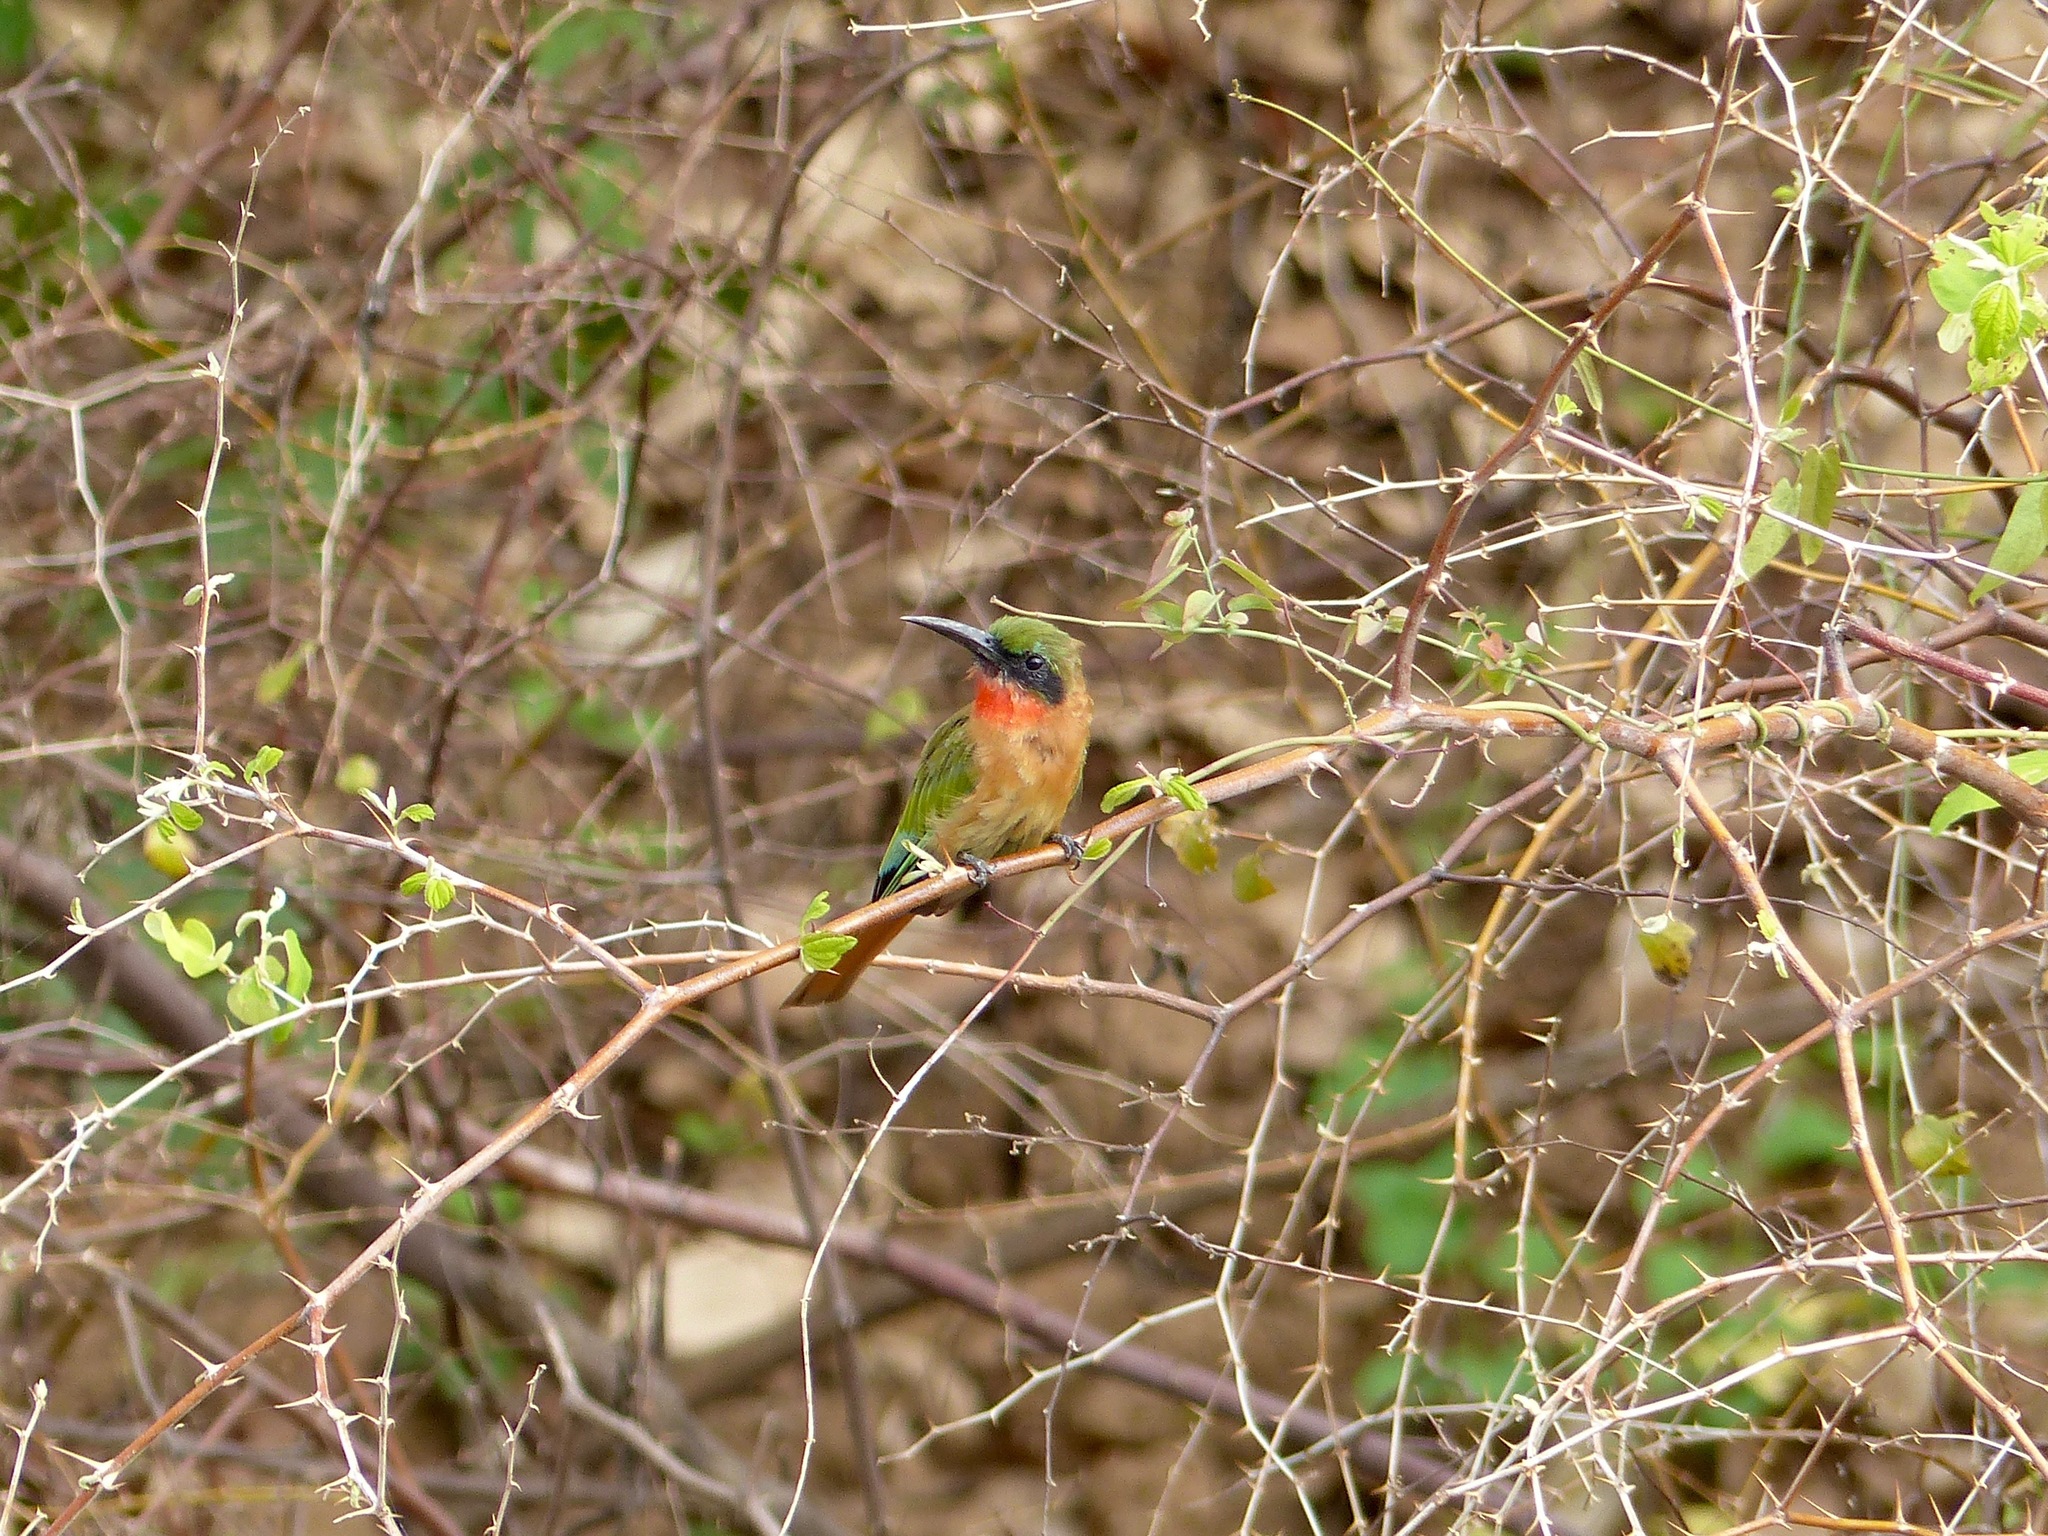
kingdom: Animalia
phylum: Chordata
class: Aves
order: Coraciiformes
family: Meropidae
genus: Merops
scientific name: Merops bulocki
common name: Red-throated bee-eater
